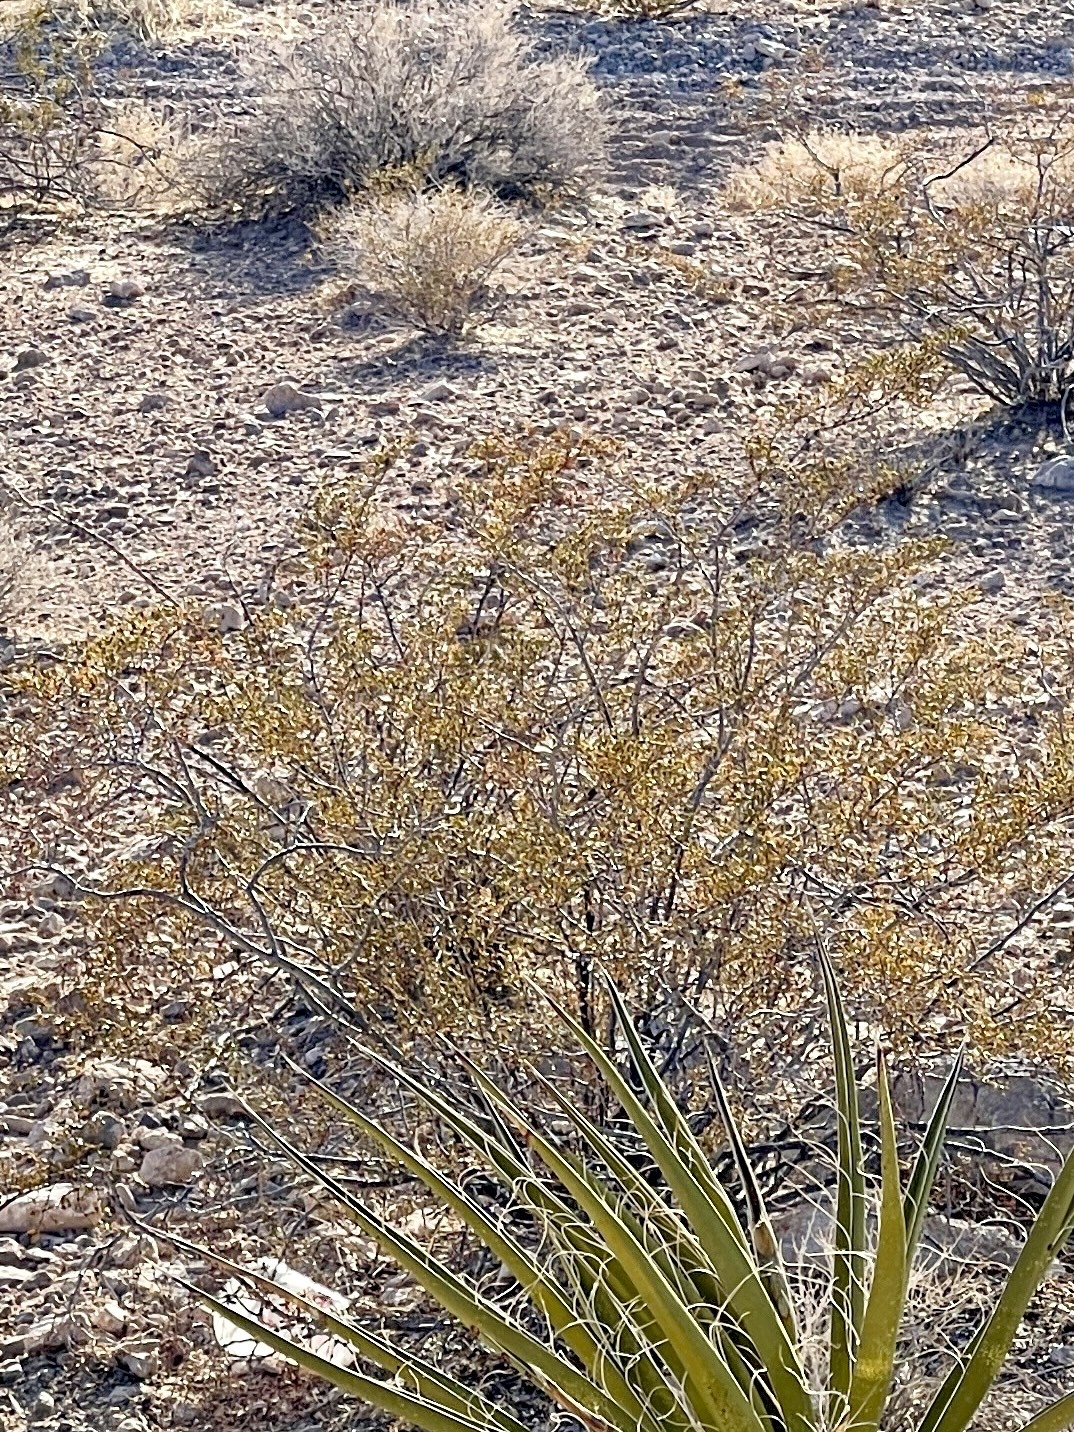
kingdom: Plantae
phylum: Tracheophyta
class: Magnoliopsida
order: Zygophyllales
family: Zygophyllaceae
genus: Larrea
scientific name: Larrea tridentata
